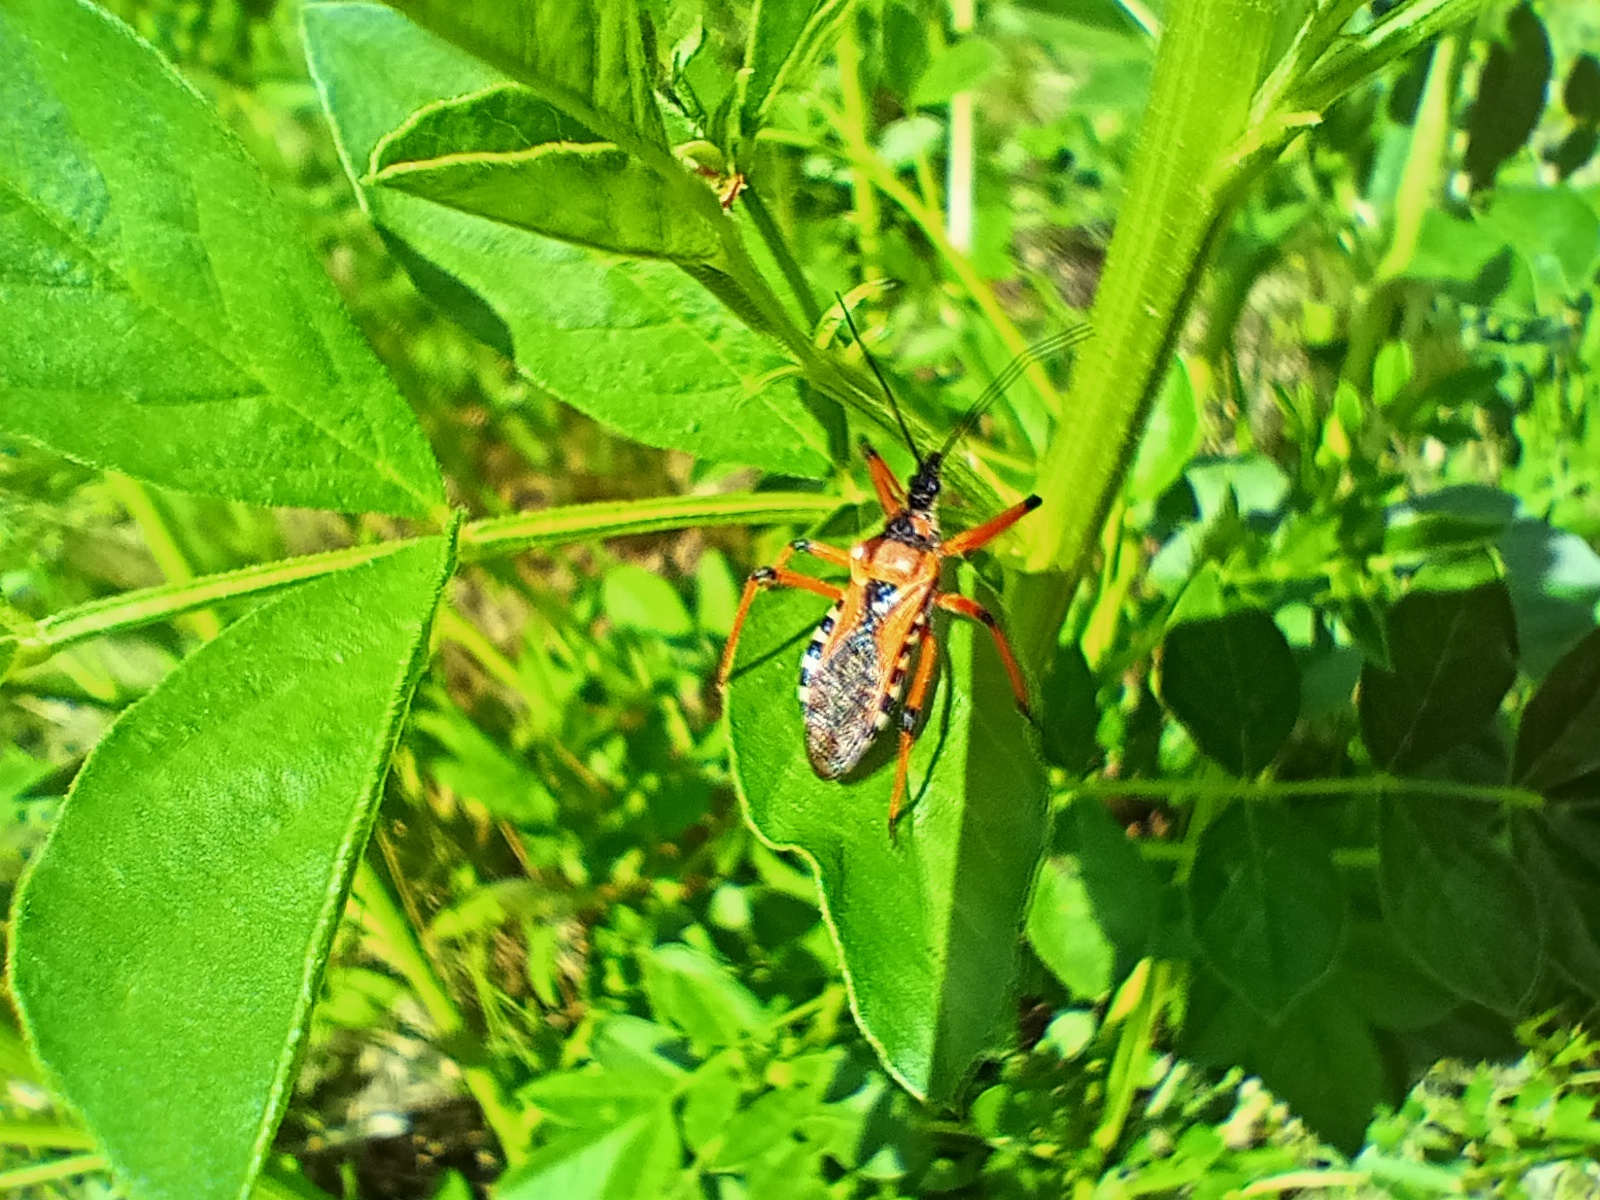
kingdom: Animalia
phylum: Arthropoda
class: Insecta
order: Hemiptera
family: Reduviidae
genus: Rhynocoris
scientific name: Rhynocoris iracundus
